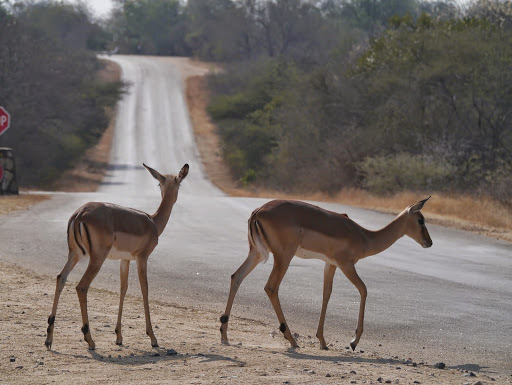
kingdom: Animalia
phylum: Chordata
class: Mammalia
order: Artiodactyla
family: Bovidae
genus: Aepyceros
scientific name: Aepyceros melampus
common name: Impala
